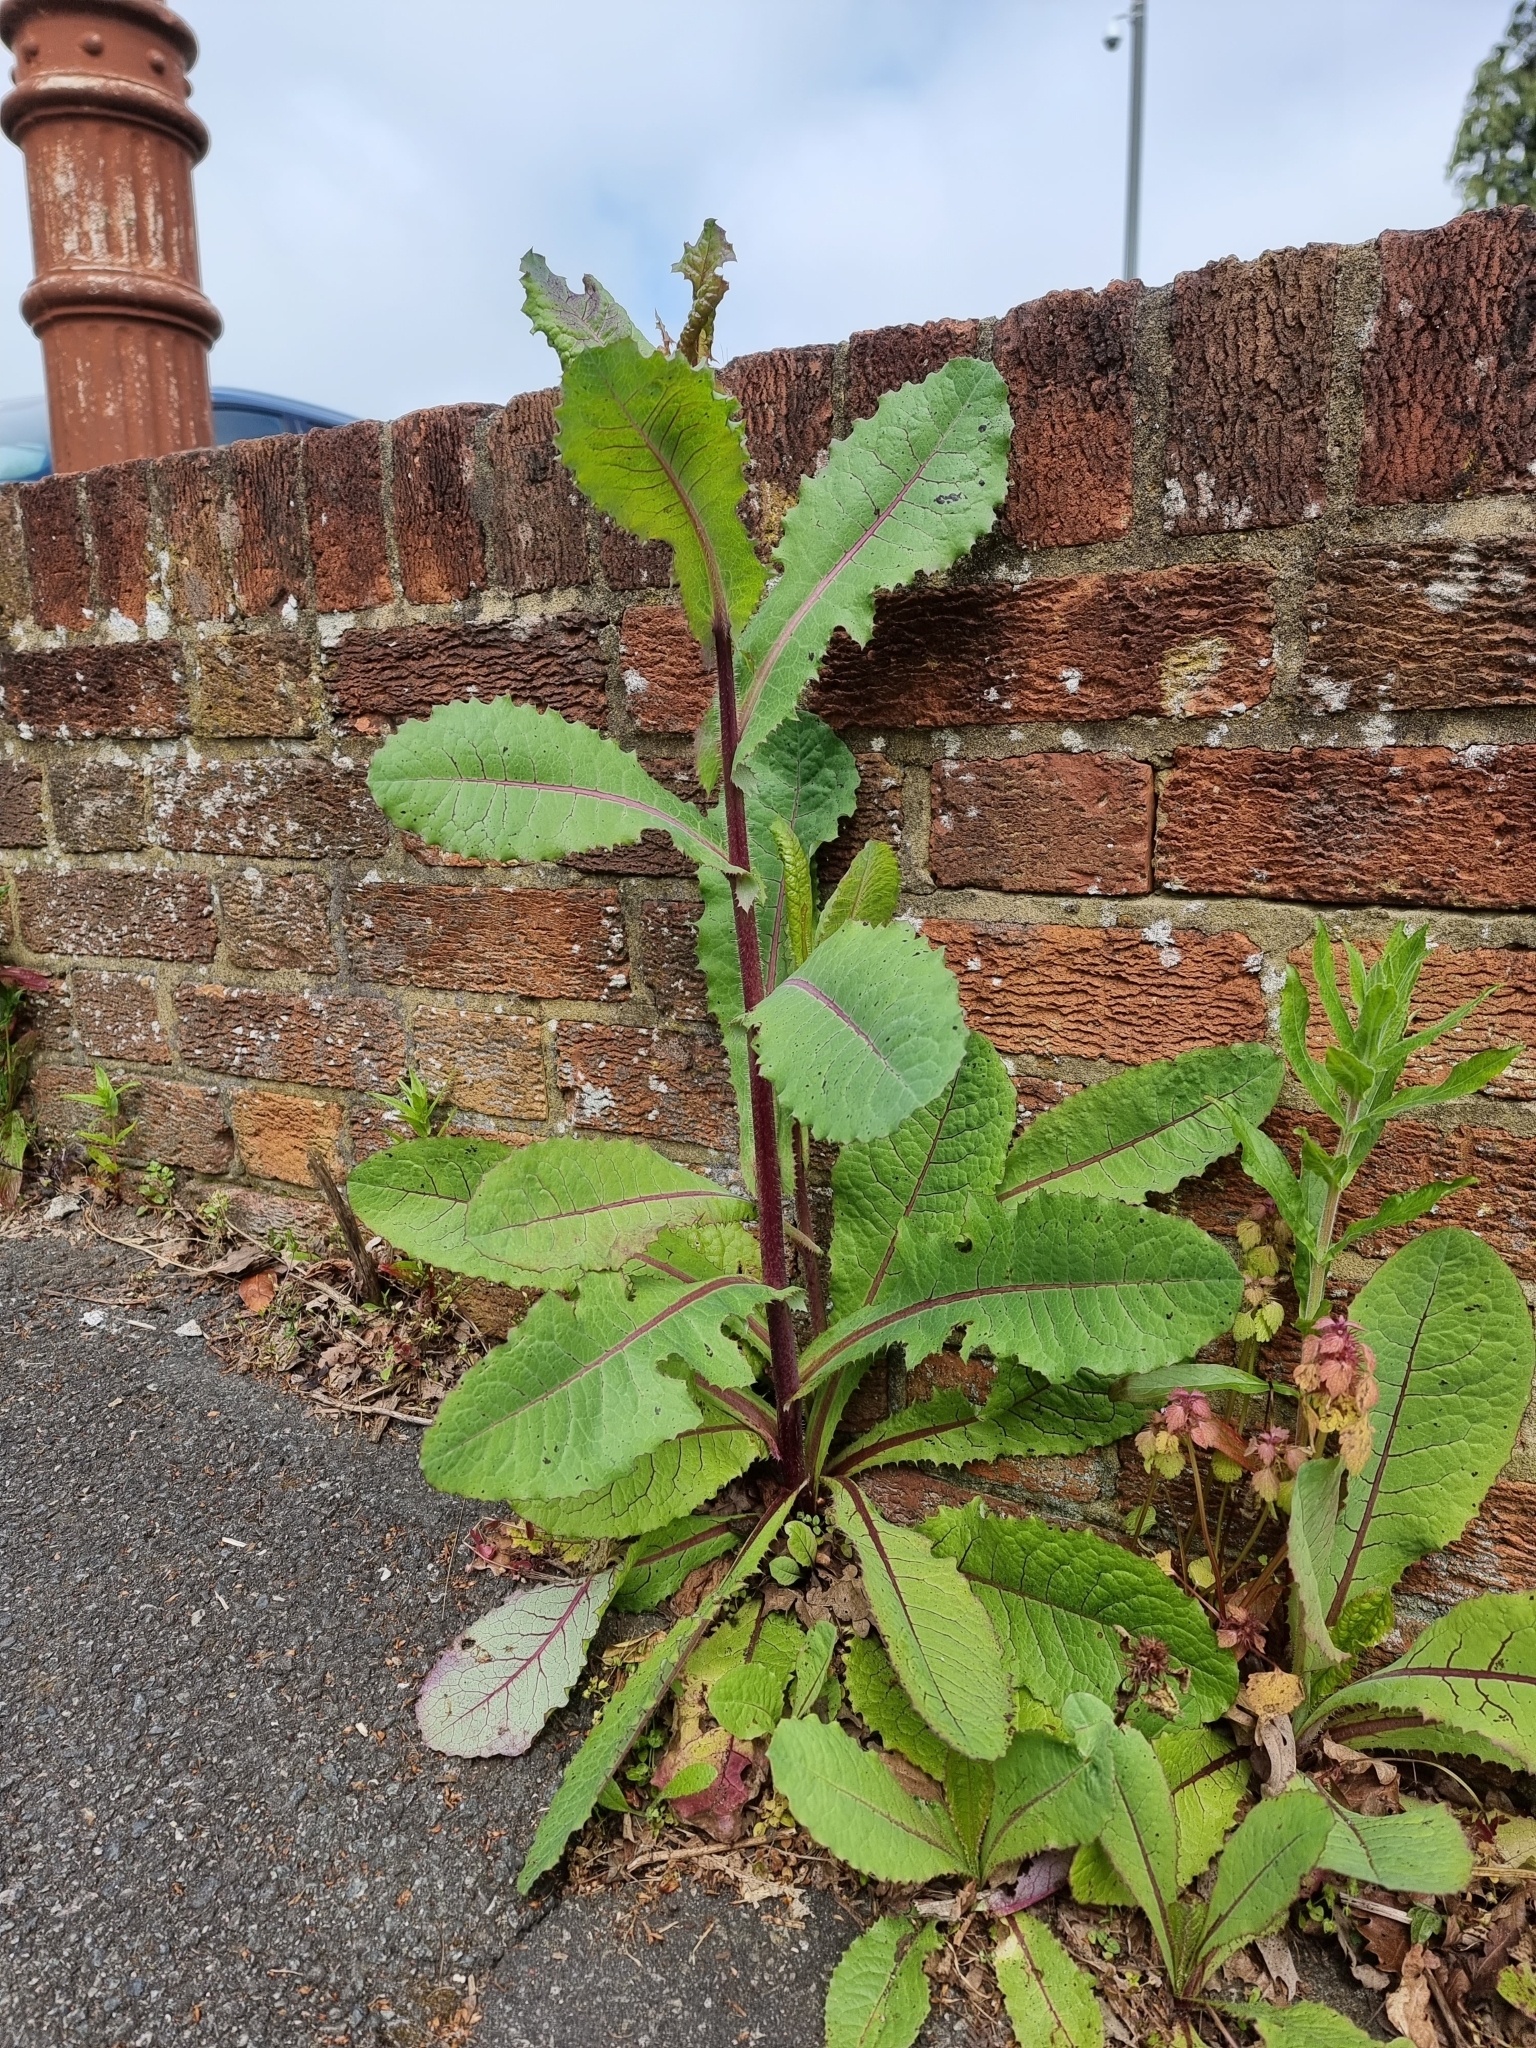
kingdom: Plantae
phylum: Tracheophyta
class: Magnoliopsida
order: Asterales
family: Asteraceae
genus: Lactuca
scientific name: Lactuca virosa
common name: Great lettuce
